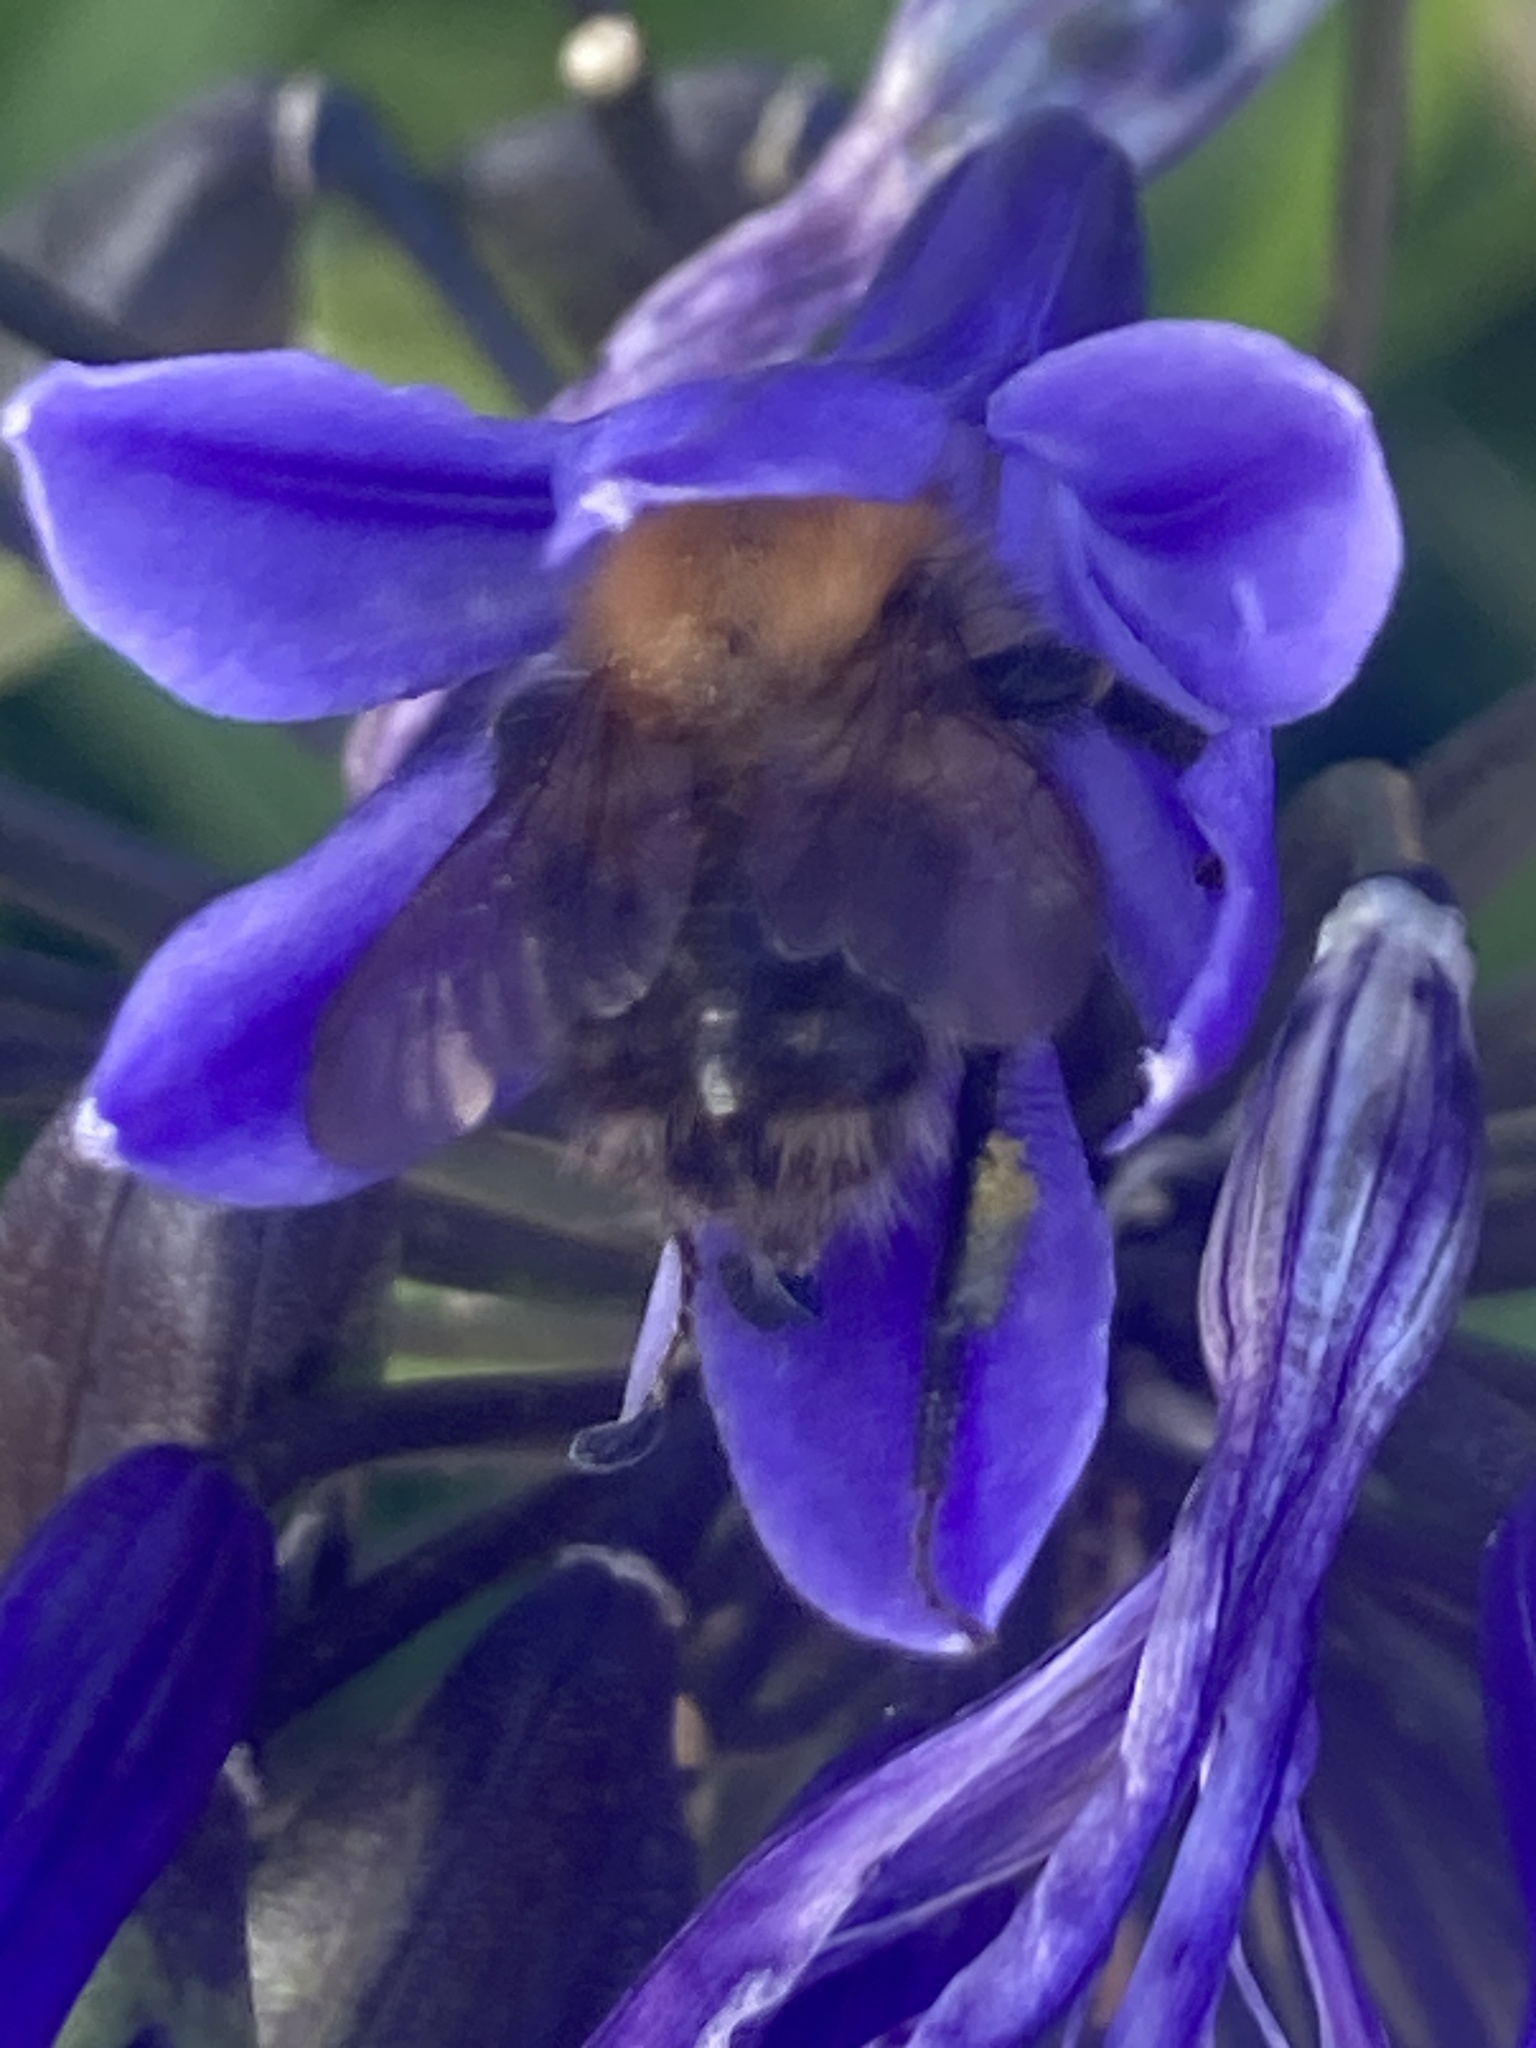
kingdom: Animalia
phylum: Arthropoda
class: Insecta
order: Hymenoptera
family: Apidae
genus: Bombus
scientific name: Bombus pascuorum
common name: Common carder bee
